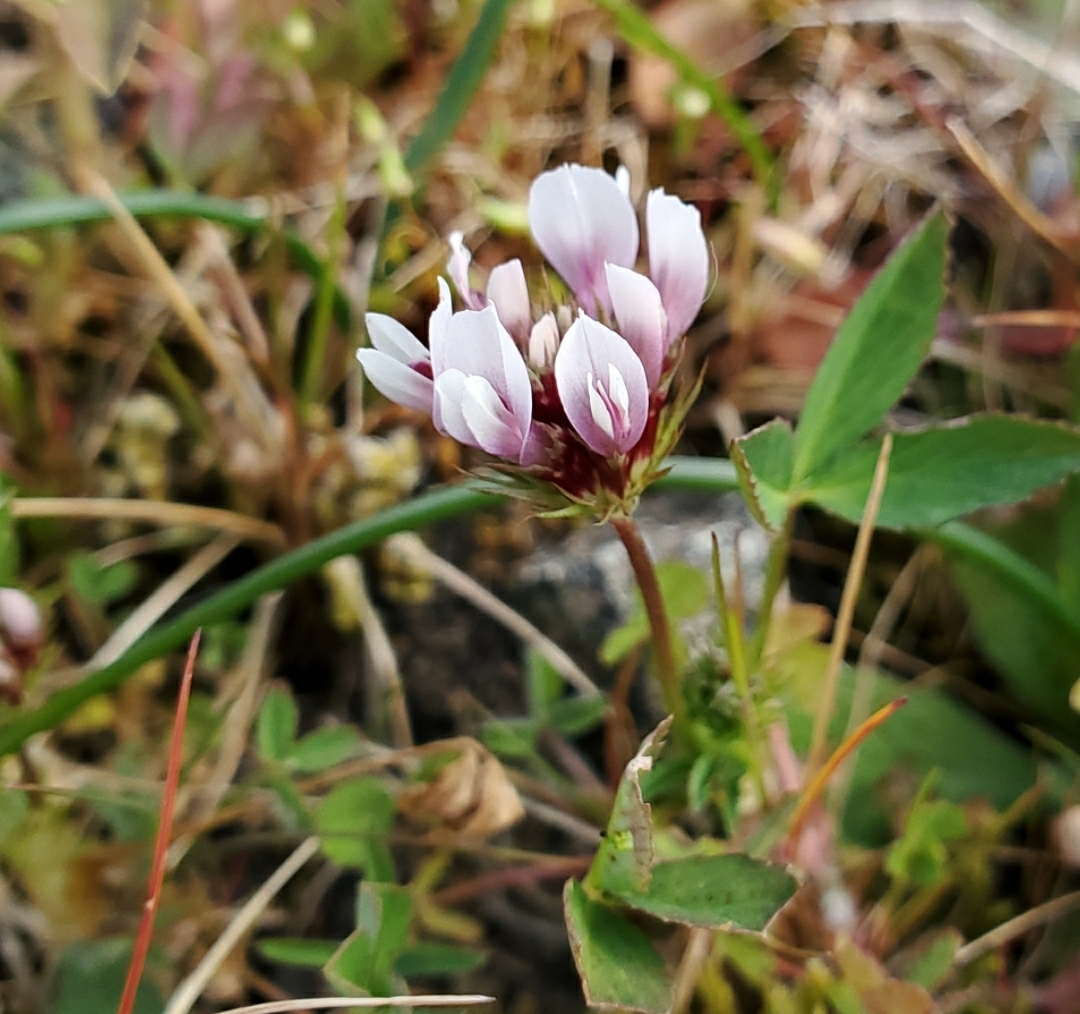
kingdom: Plantae
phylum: Tracheophyta
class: Magnoliopsida
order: Fabales
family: Fabaceae
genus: Trifolium
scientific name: Trifolium variegatum
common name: Whitetip clover
